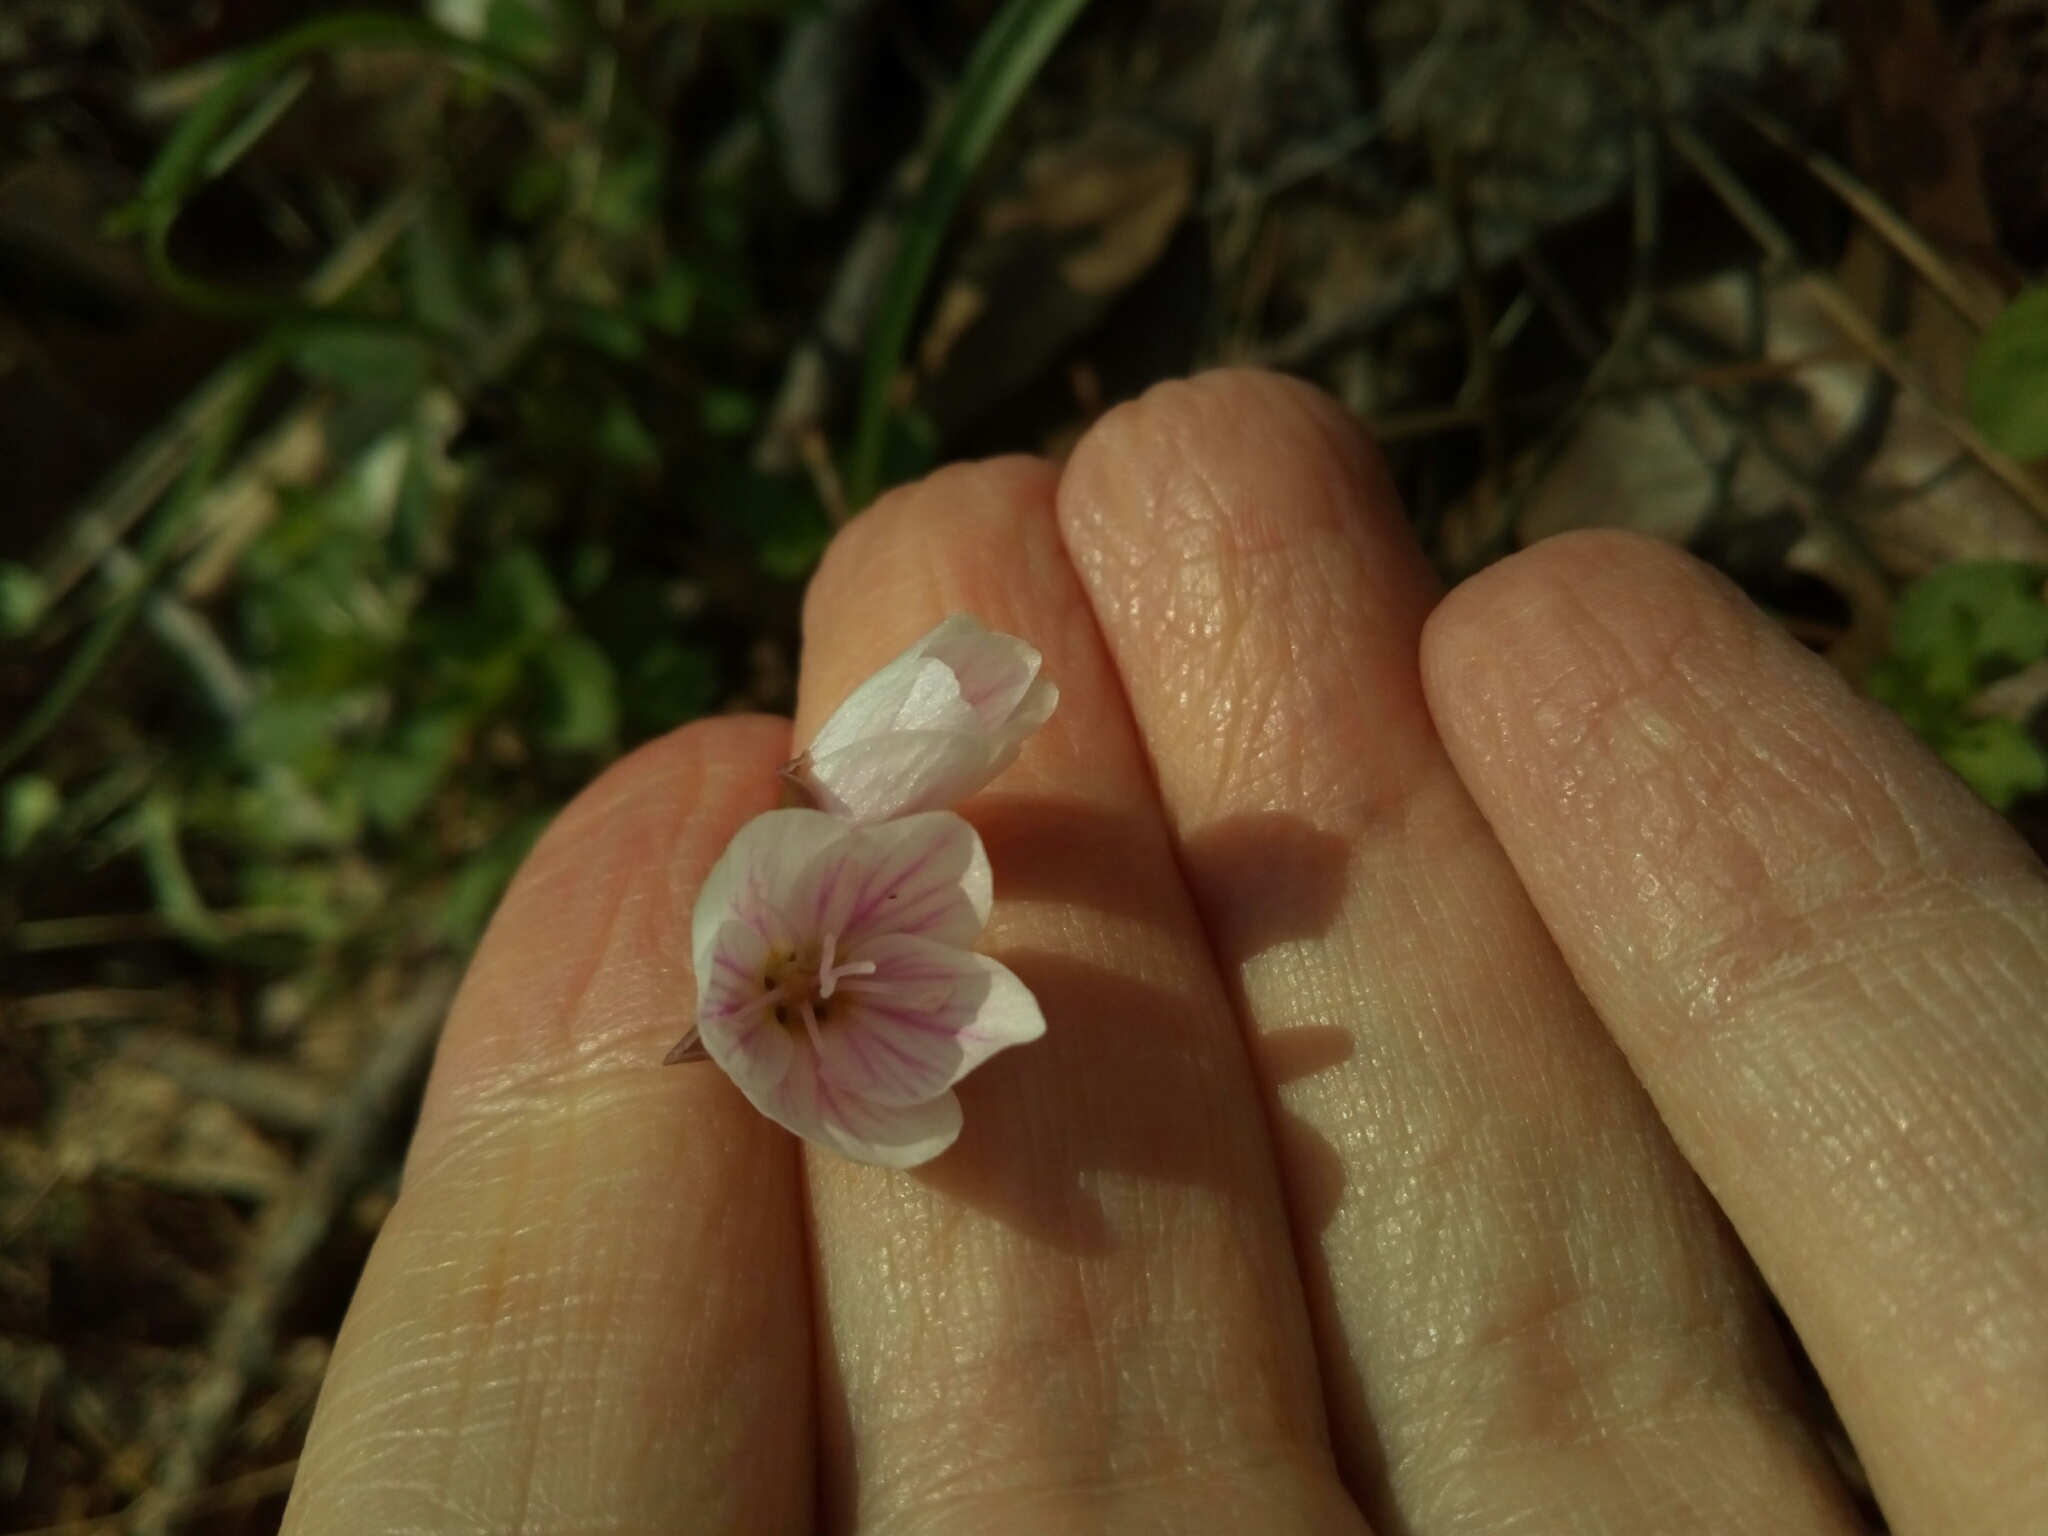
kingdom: Plantae
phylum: Tracheophyta
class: Magnoliopsida
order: Caryophyllales
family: Montiaceae
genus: Claytonia
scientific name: Claytonia virginica
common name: Virginia springbeauty
